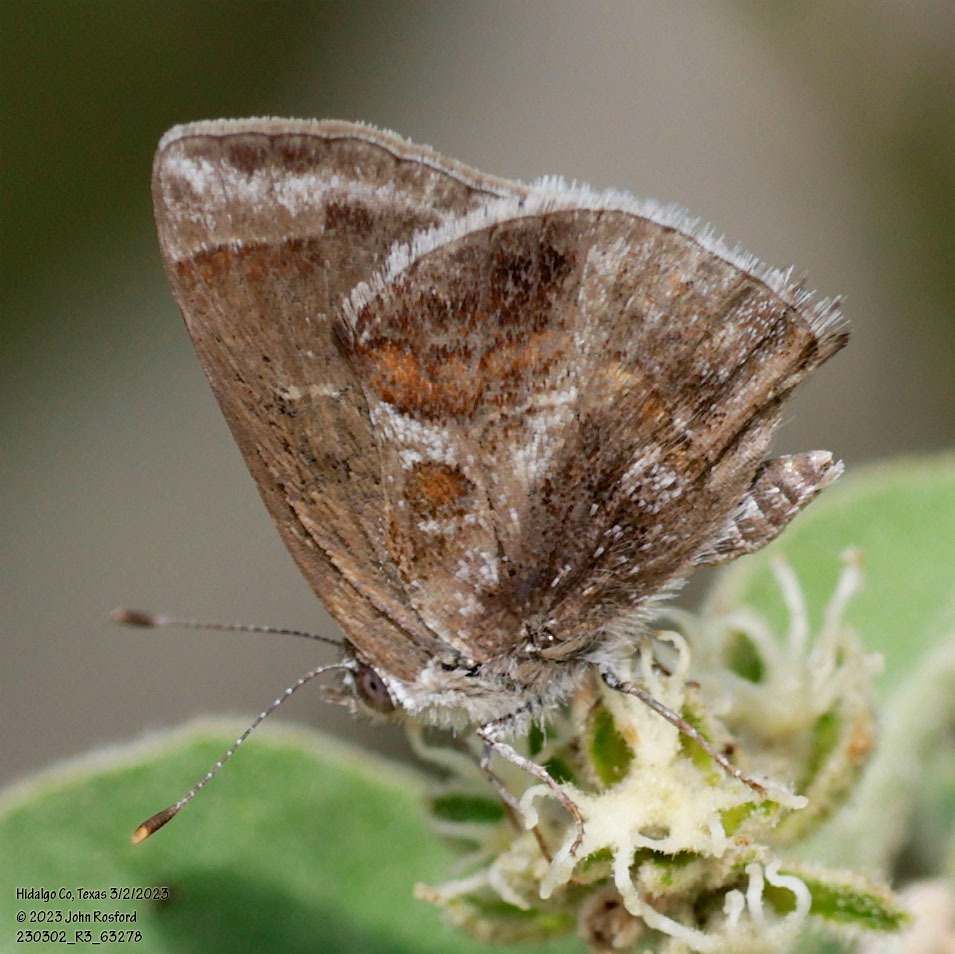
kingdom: Animalia
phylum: Arthropoda
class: Insecta
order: Lepidoptera
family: Lycaenidae
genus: Strymon
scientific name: Strymon bazochii
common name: Lantana scrub-hairstreak
